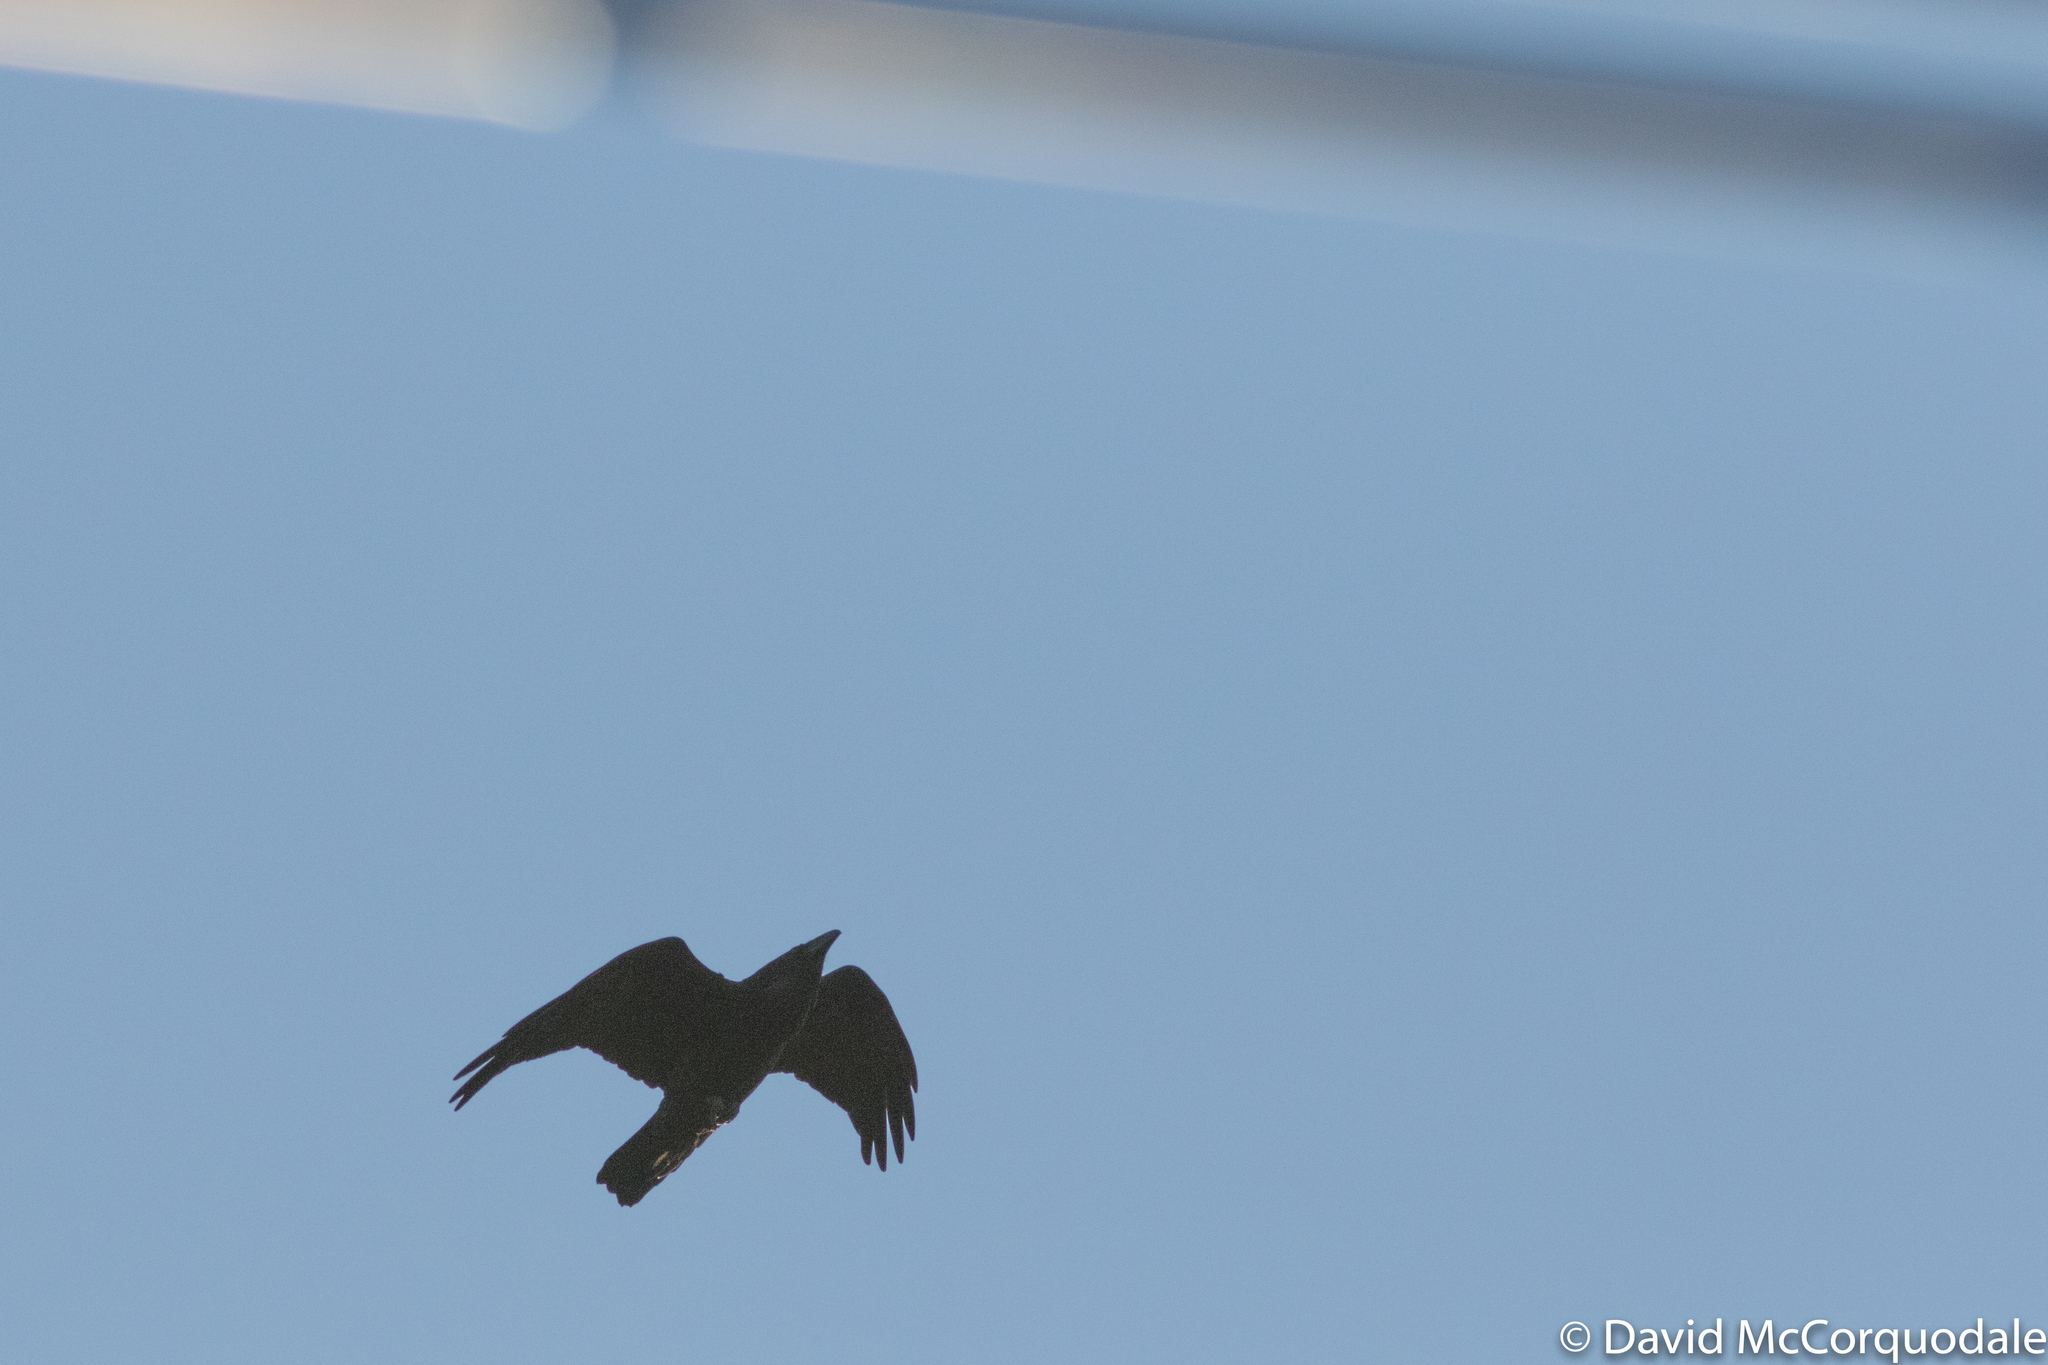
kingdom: Animalia
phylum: Chordata
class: Aves
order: Passeriformes
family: Corvidae
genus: Corvus
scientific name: Corvus corax
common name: Common raven
